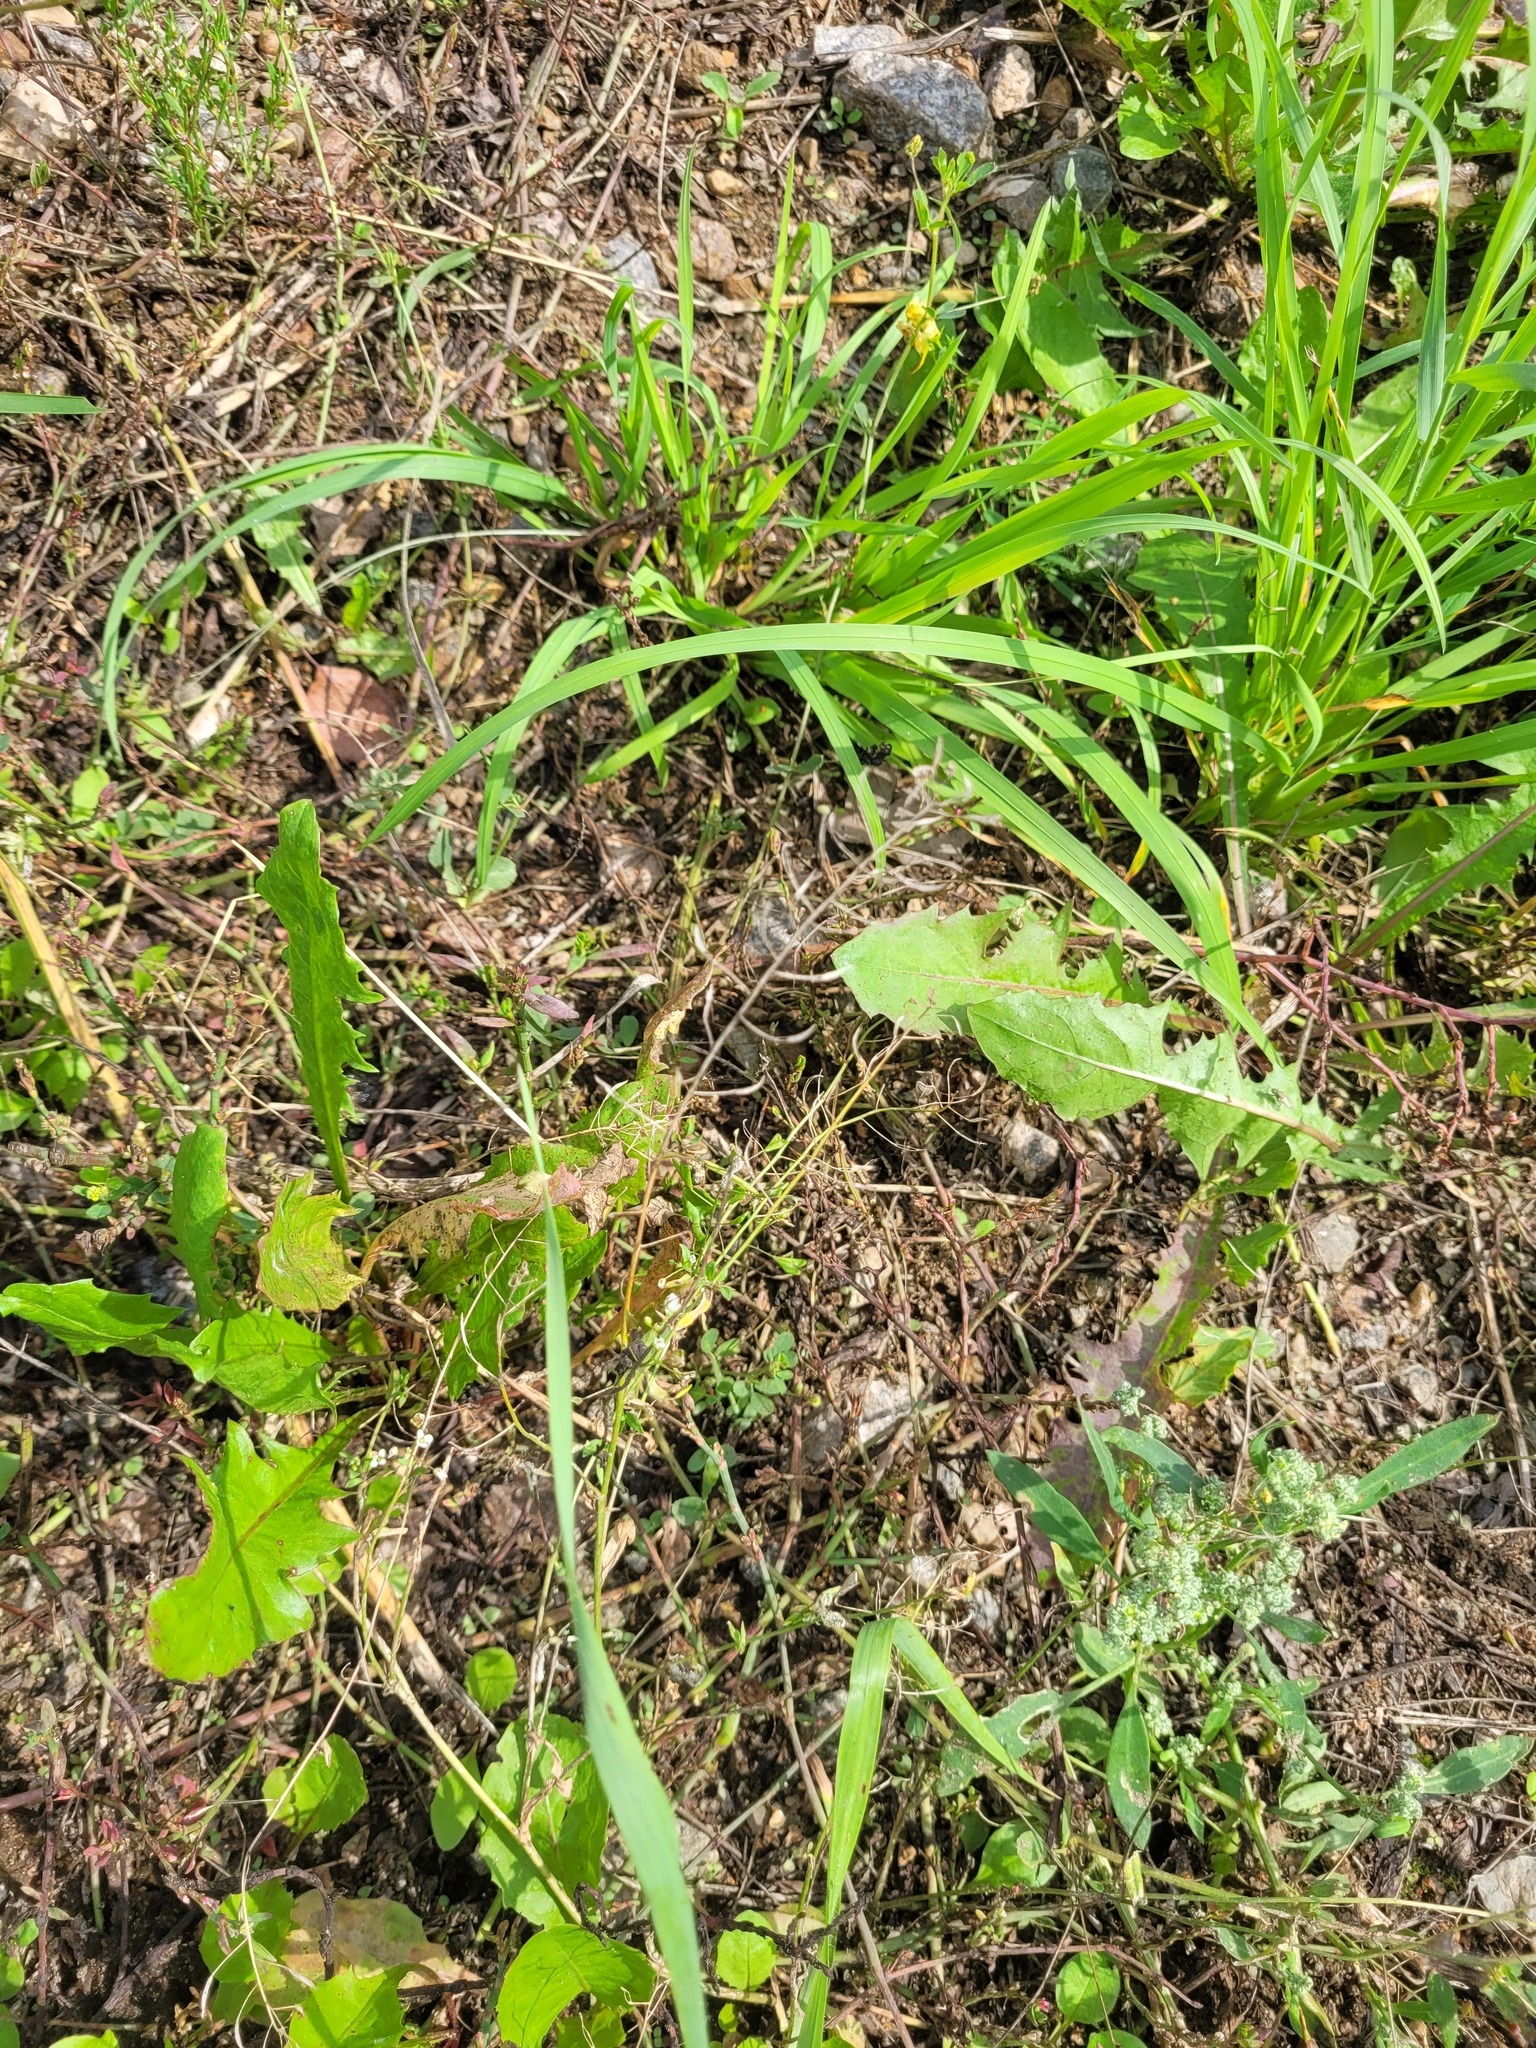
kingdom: Plantae
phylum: Tracheophyta
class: Magnoliopsida
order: Brassicales
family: Brassicaceae
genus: Capsella
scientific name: Capsella bursa-pastoris
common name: Shepherd's purse
